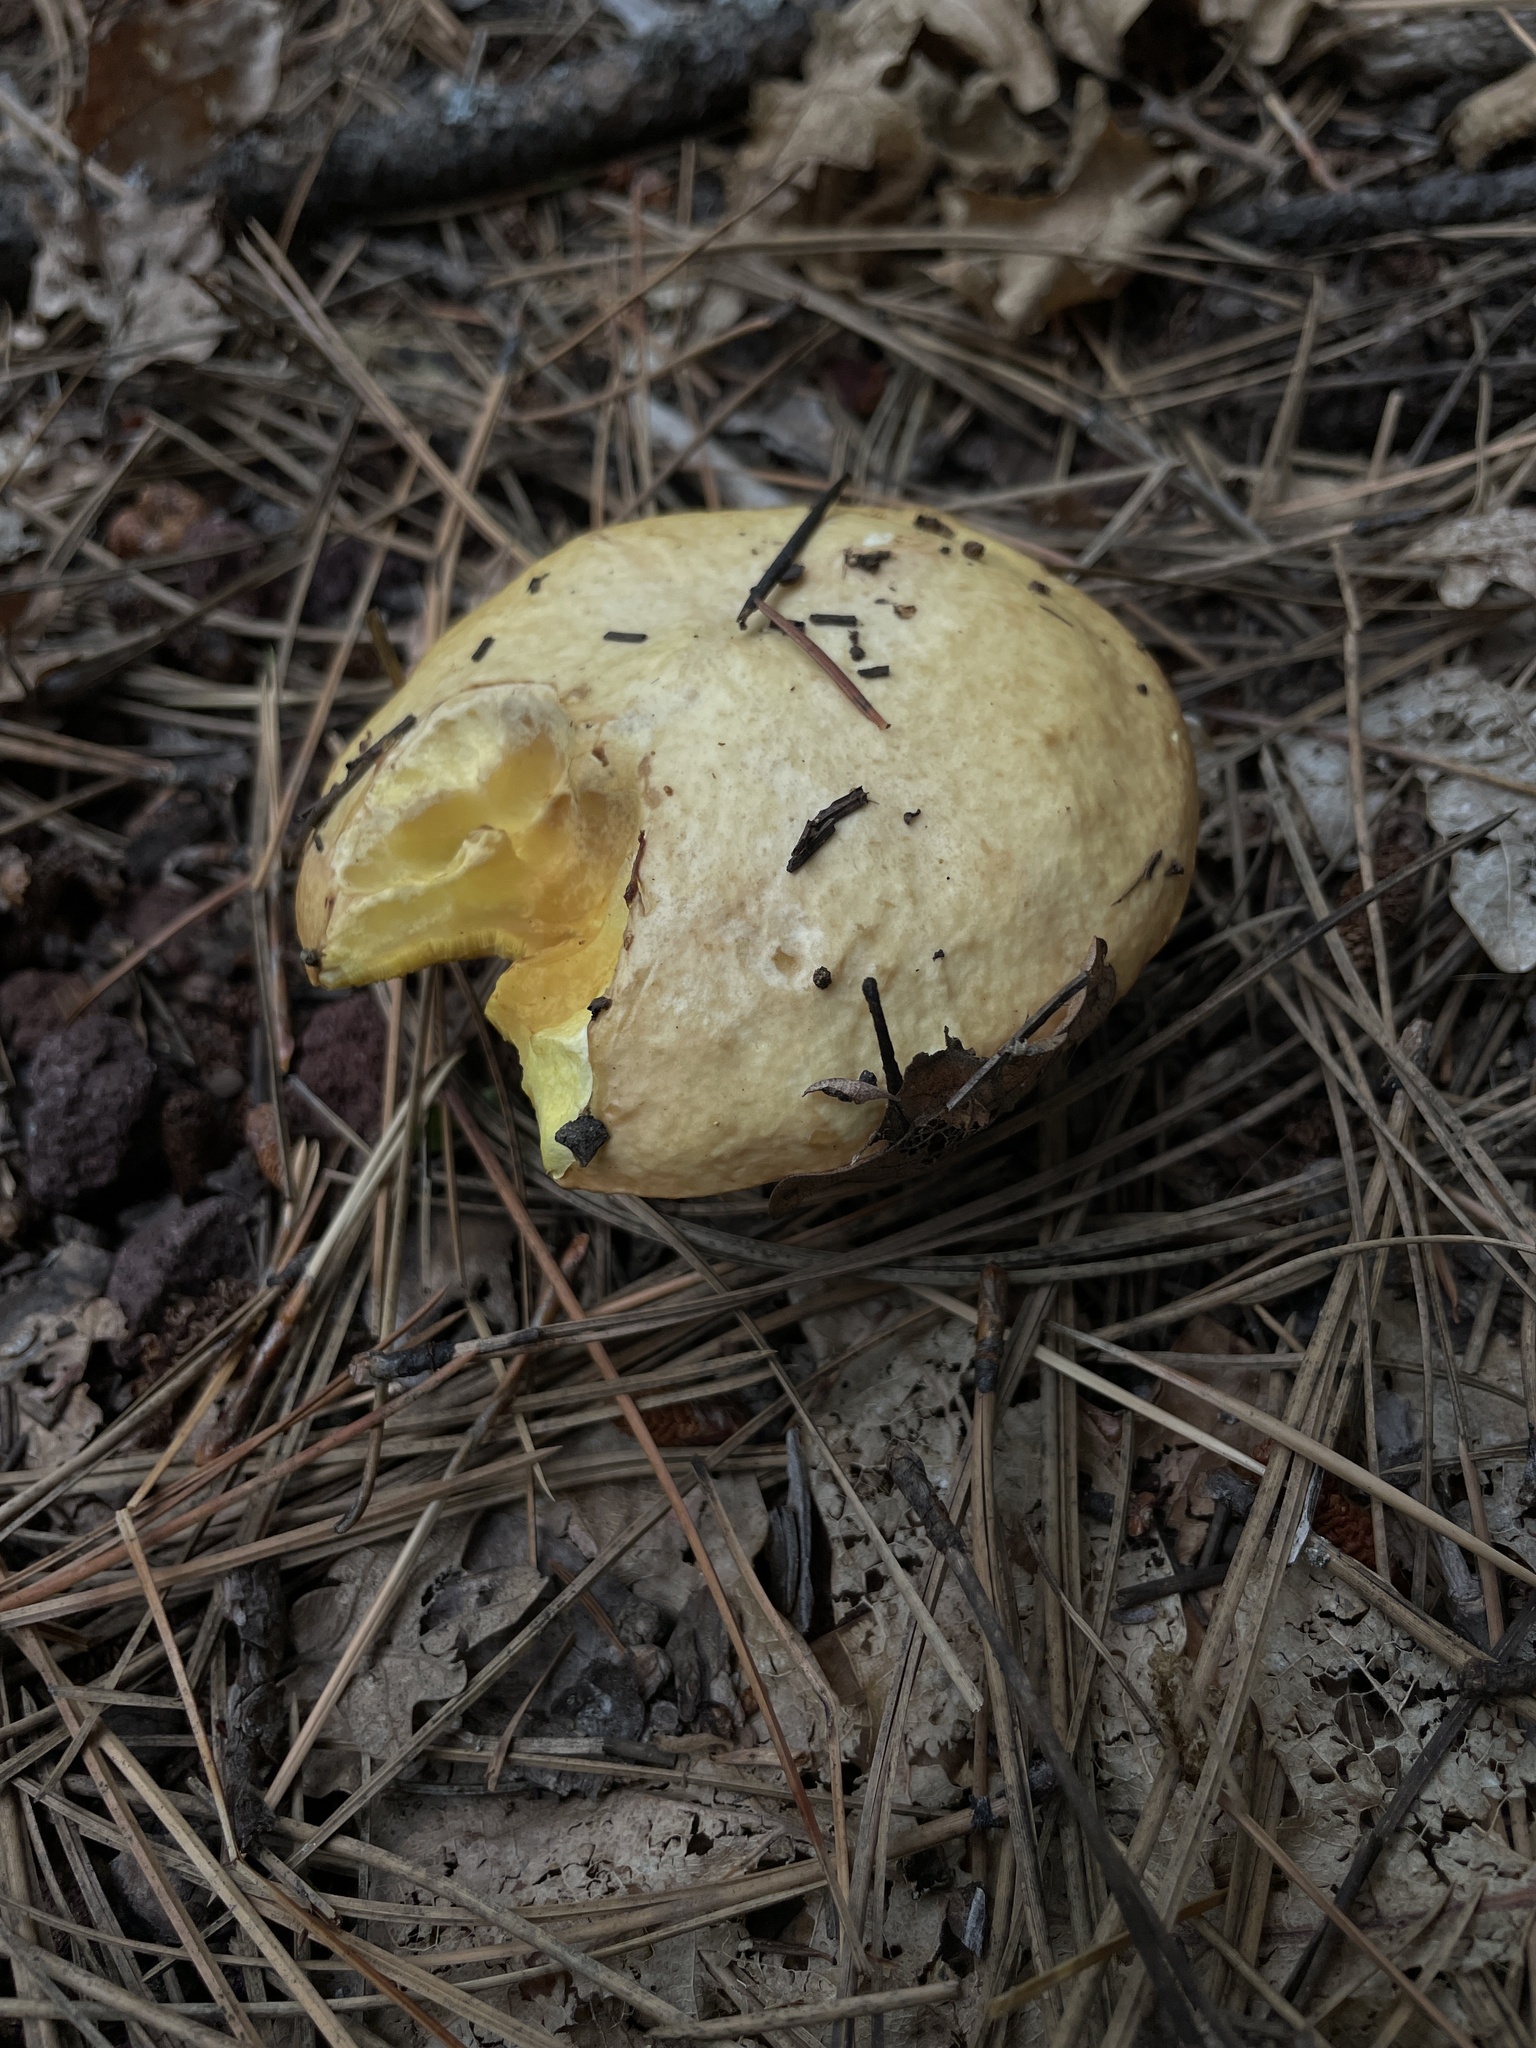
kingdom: Fungi
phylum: Basidiomycota
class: Agaricomycetes
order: Boletales
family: Suillaceae
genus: Suillus
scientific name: Suillus kaibabensis
